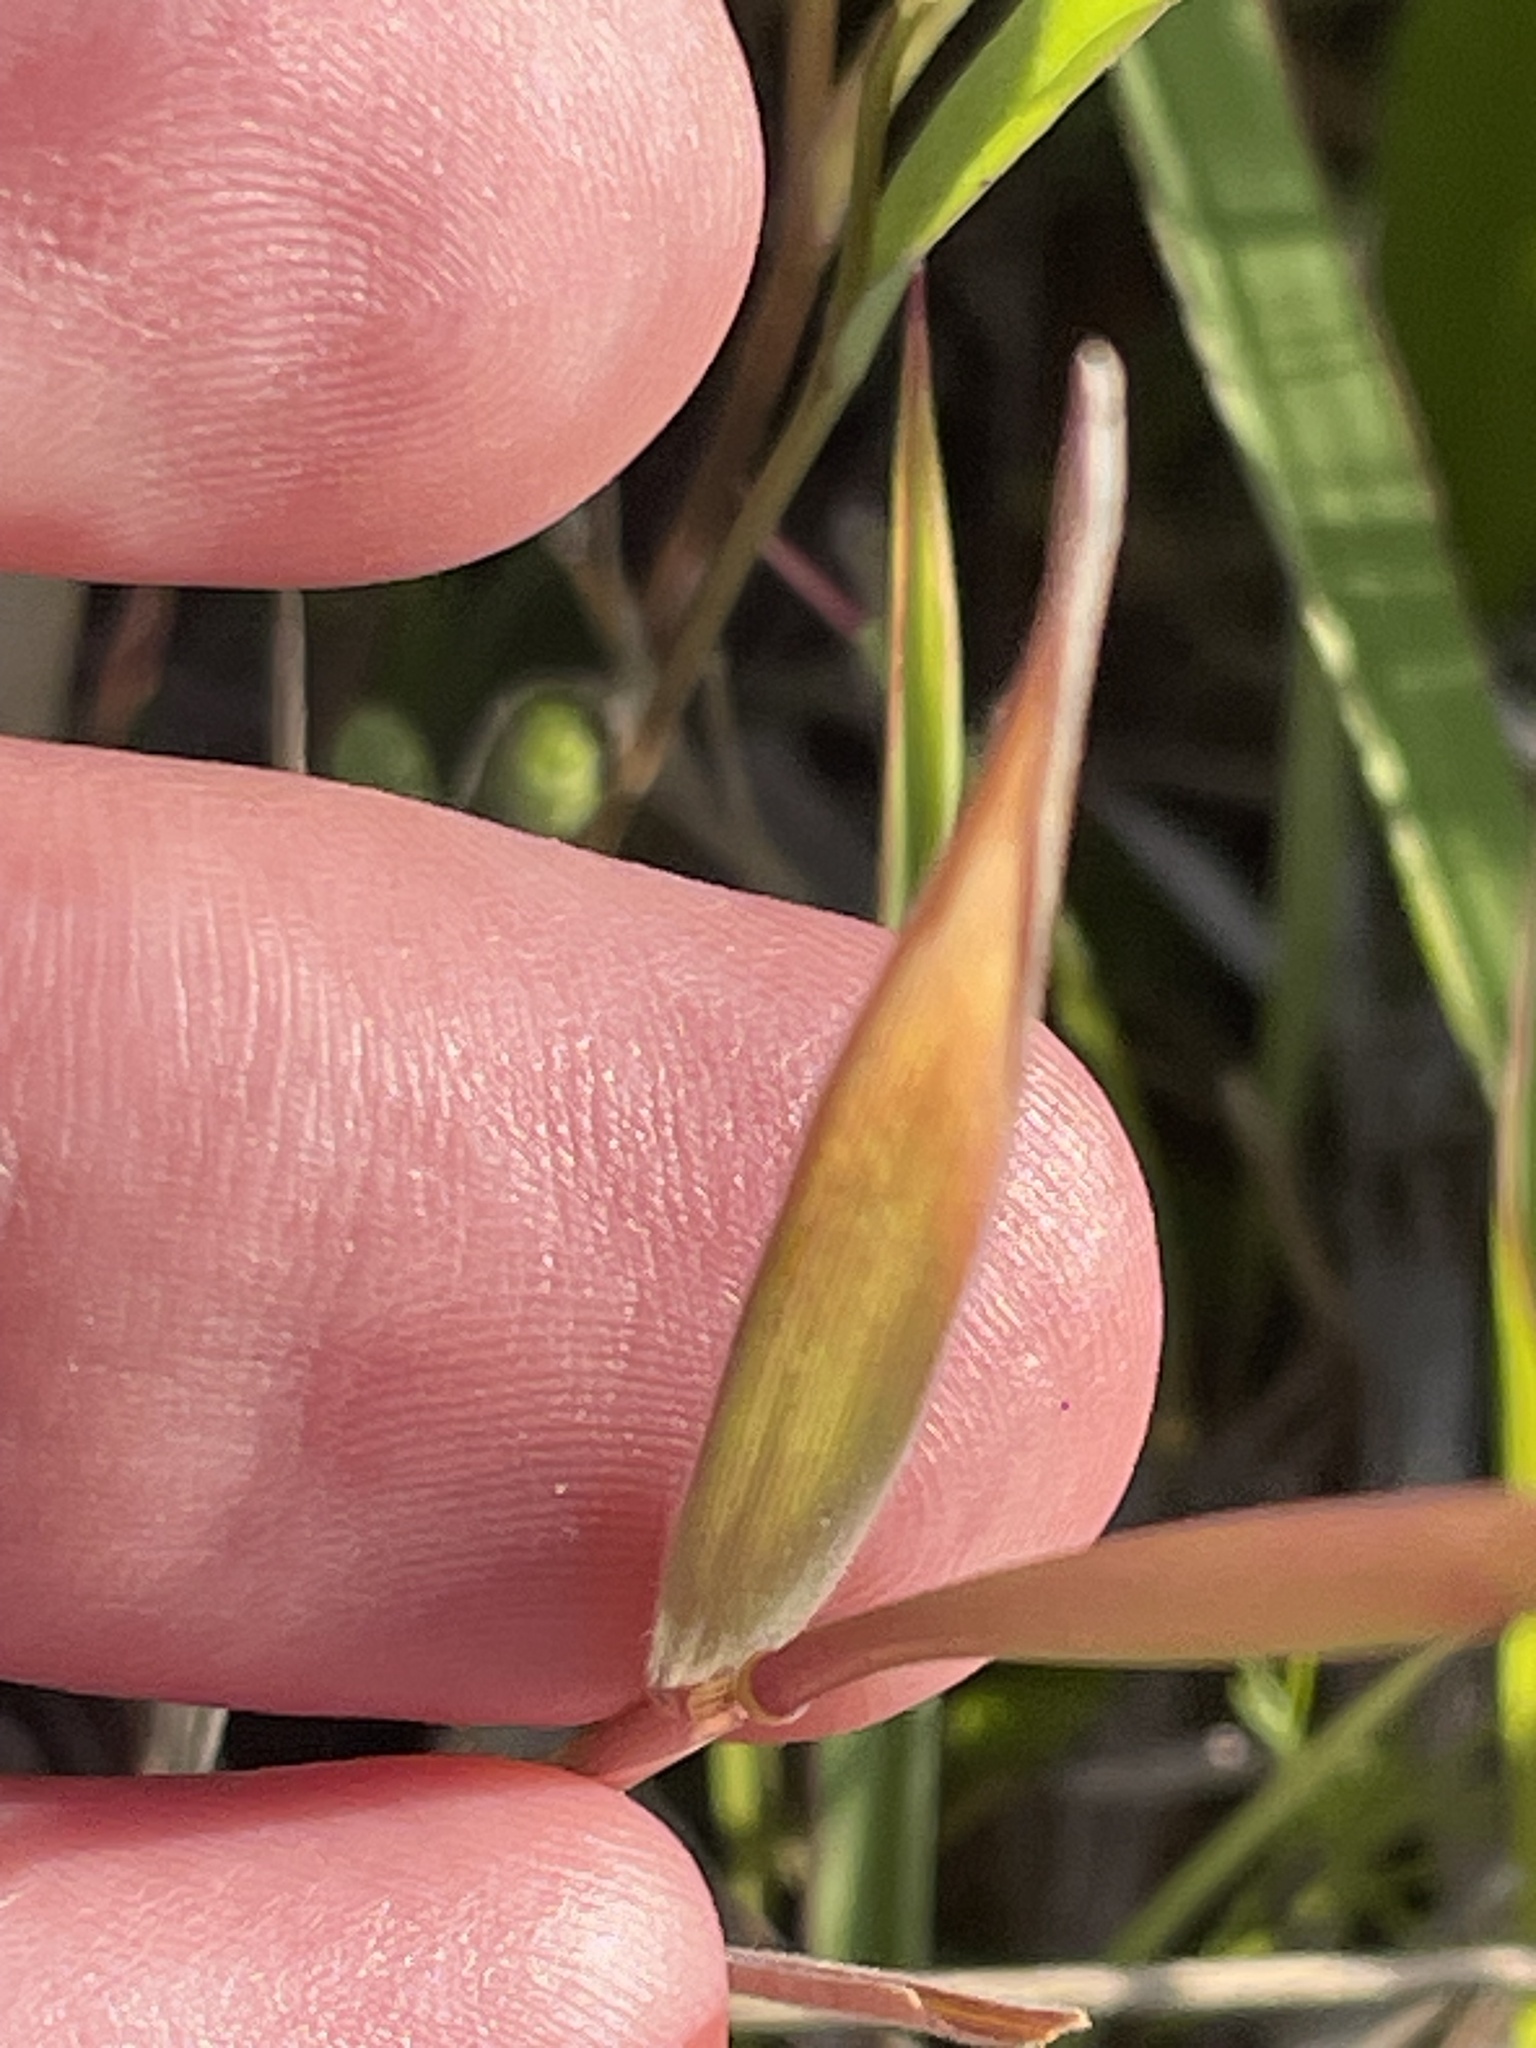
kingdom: Plantae
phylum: Tracheophyta
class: Liliopsida
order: Poales
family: Poaceae
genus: Hordeum
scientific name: Hordeum pusillum
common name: Little barley
